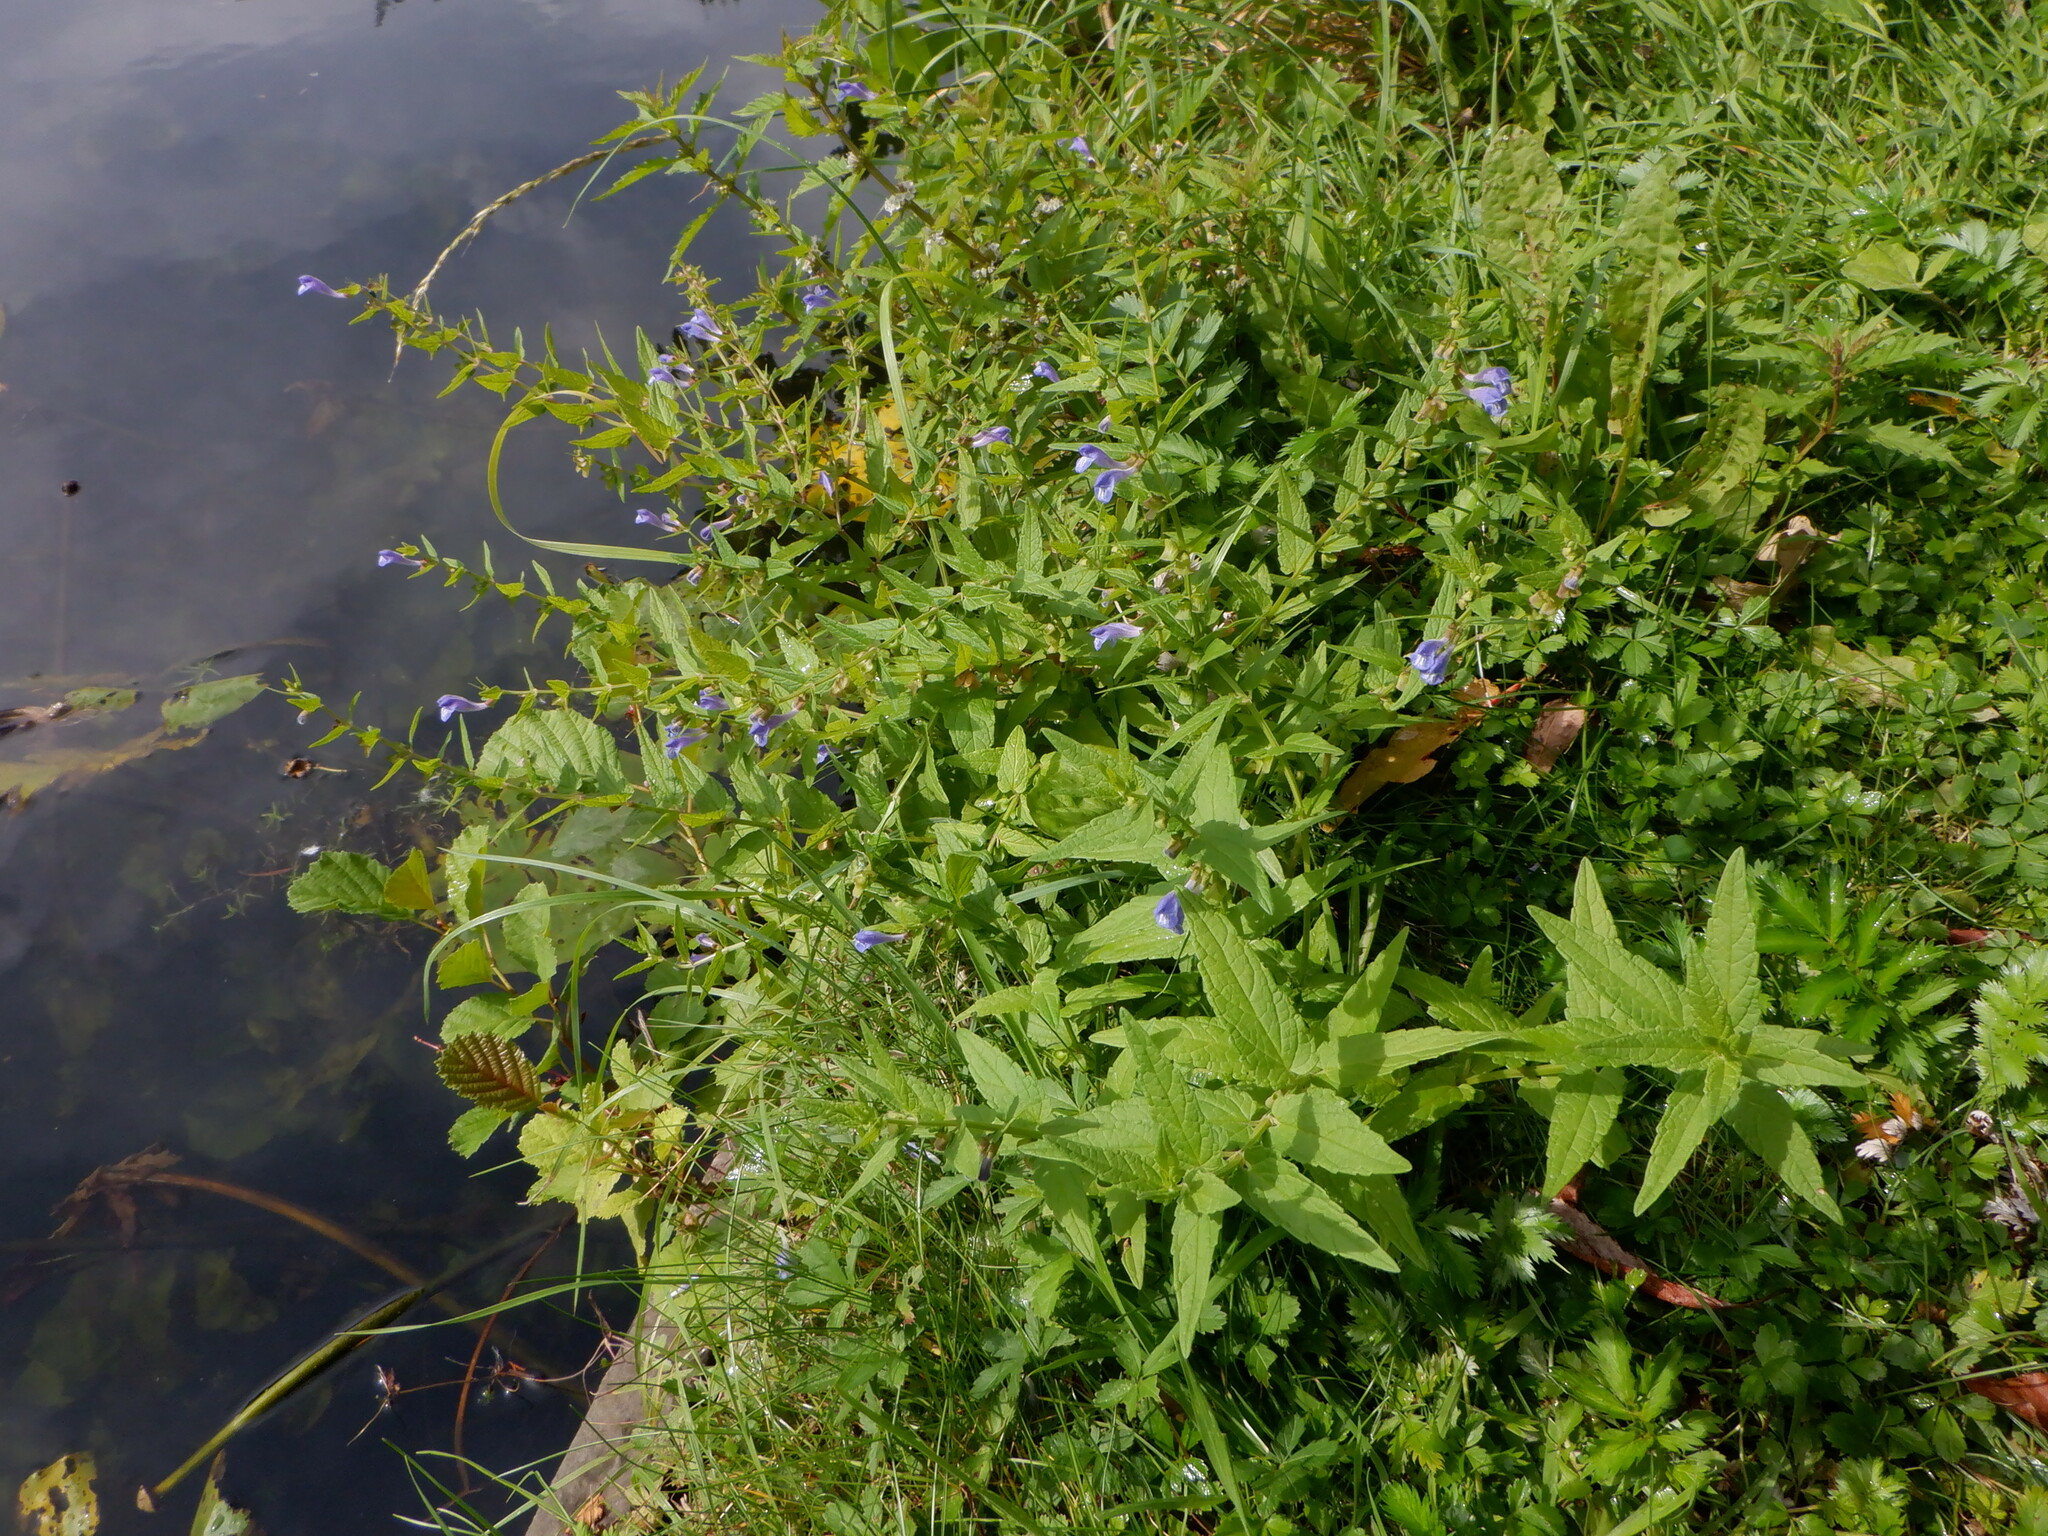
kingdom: Plantae
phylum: Tracheophyta
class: Magnoliopsida
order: Lamiales
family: Lamiaceae
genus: Scutellaria
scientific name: Scutellaria galericulata
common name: Skullcap
